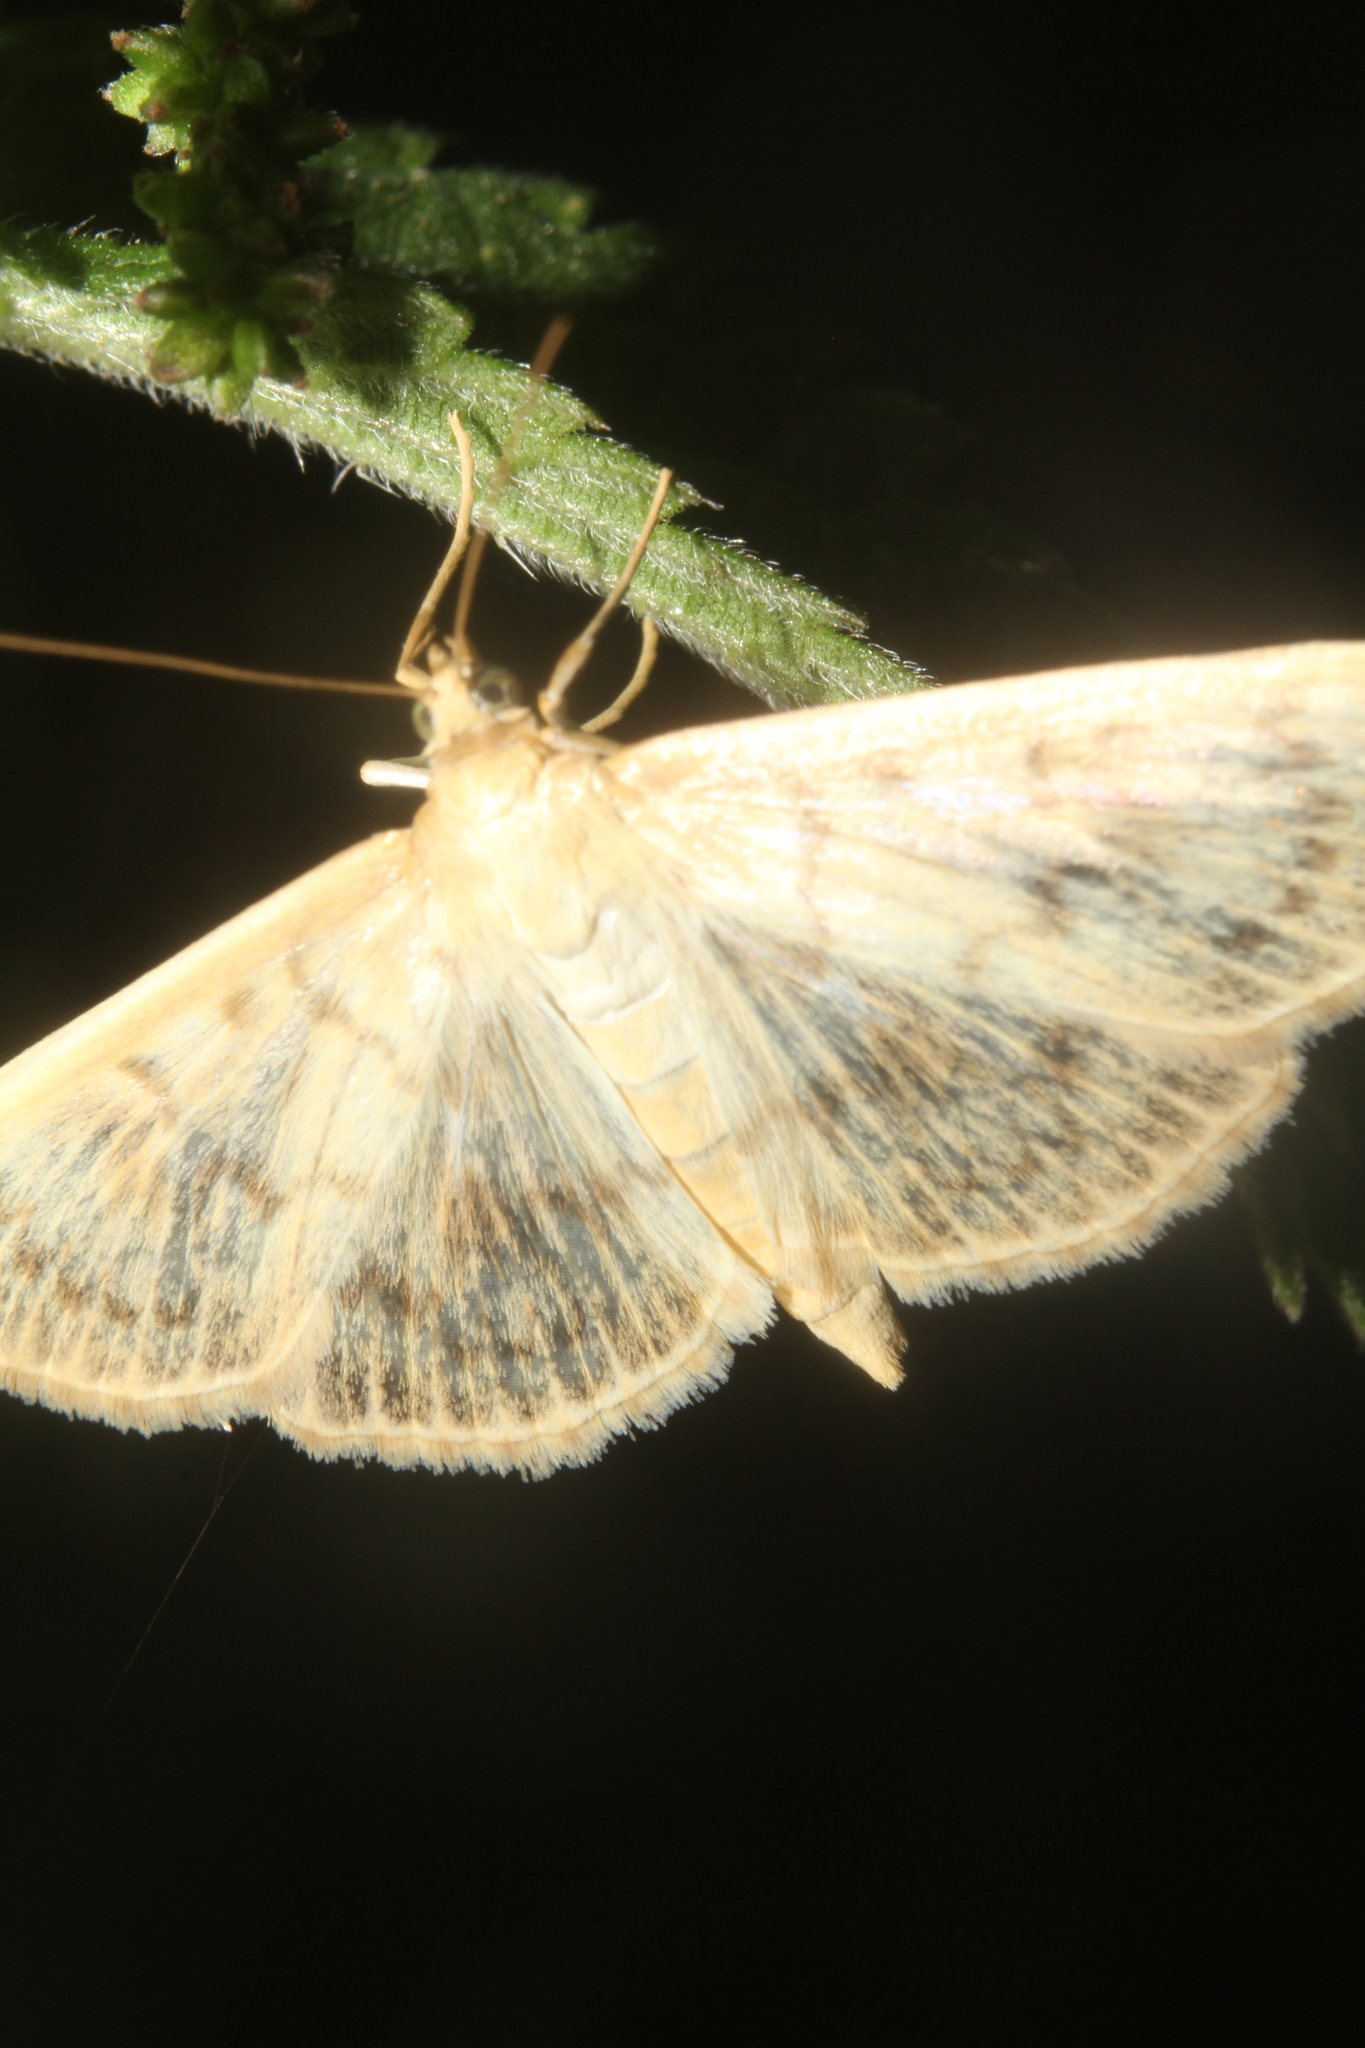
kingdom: Animalia
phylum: Arthropoda
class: Insecta
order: Lepidoptera
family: Crambidae
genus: Patania
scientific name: Patania ruralis
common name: Mother of pearl
